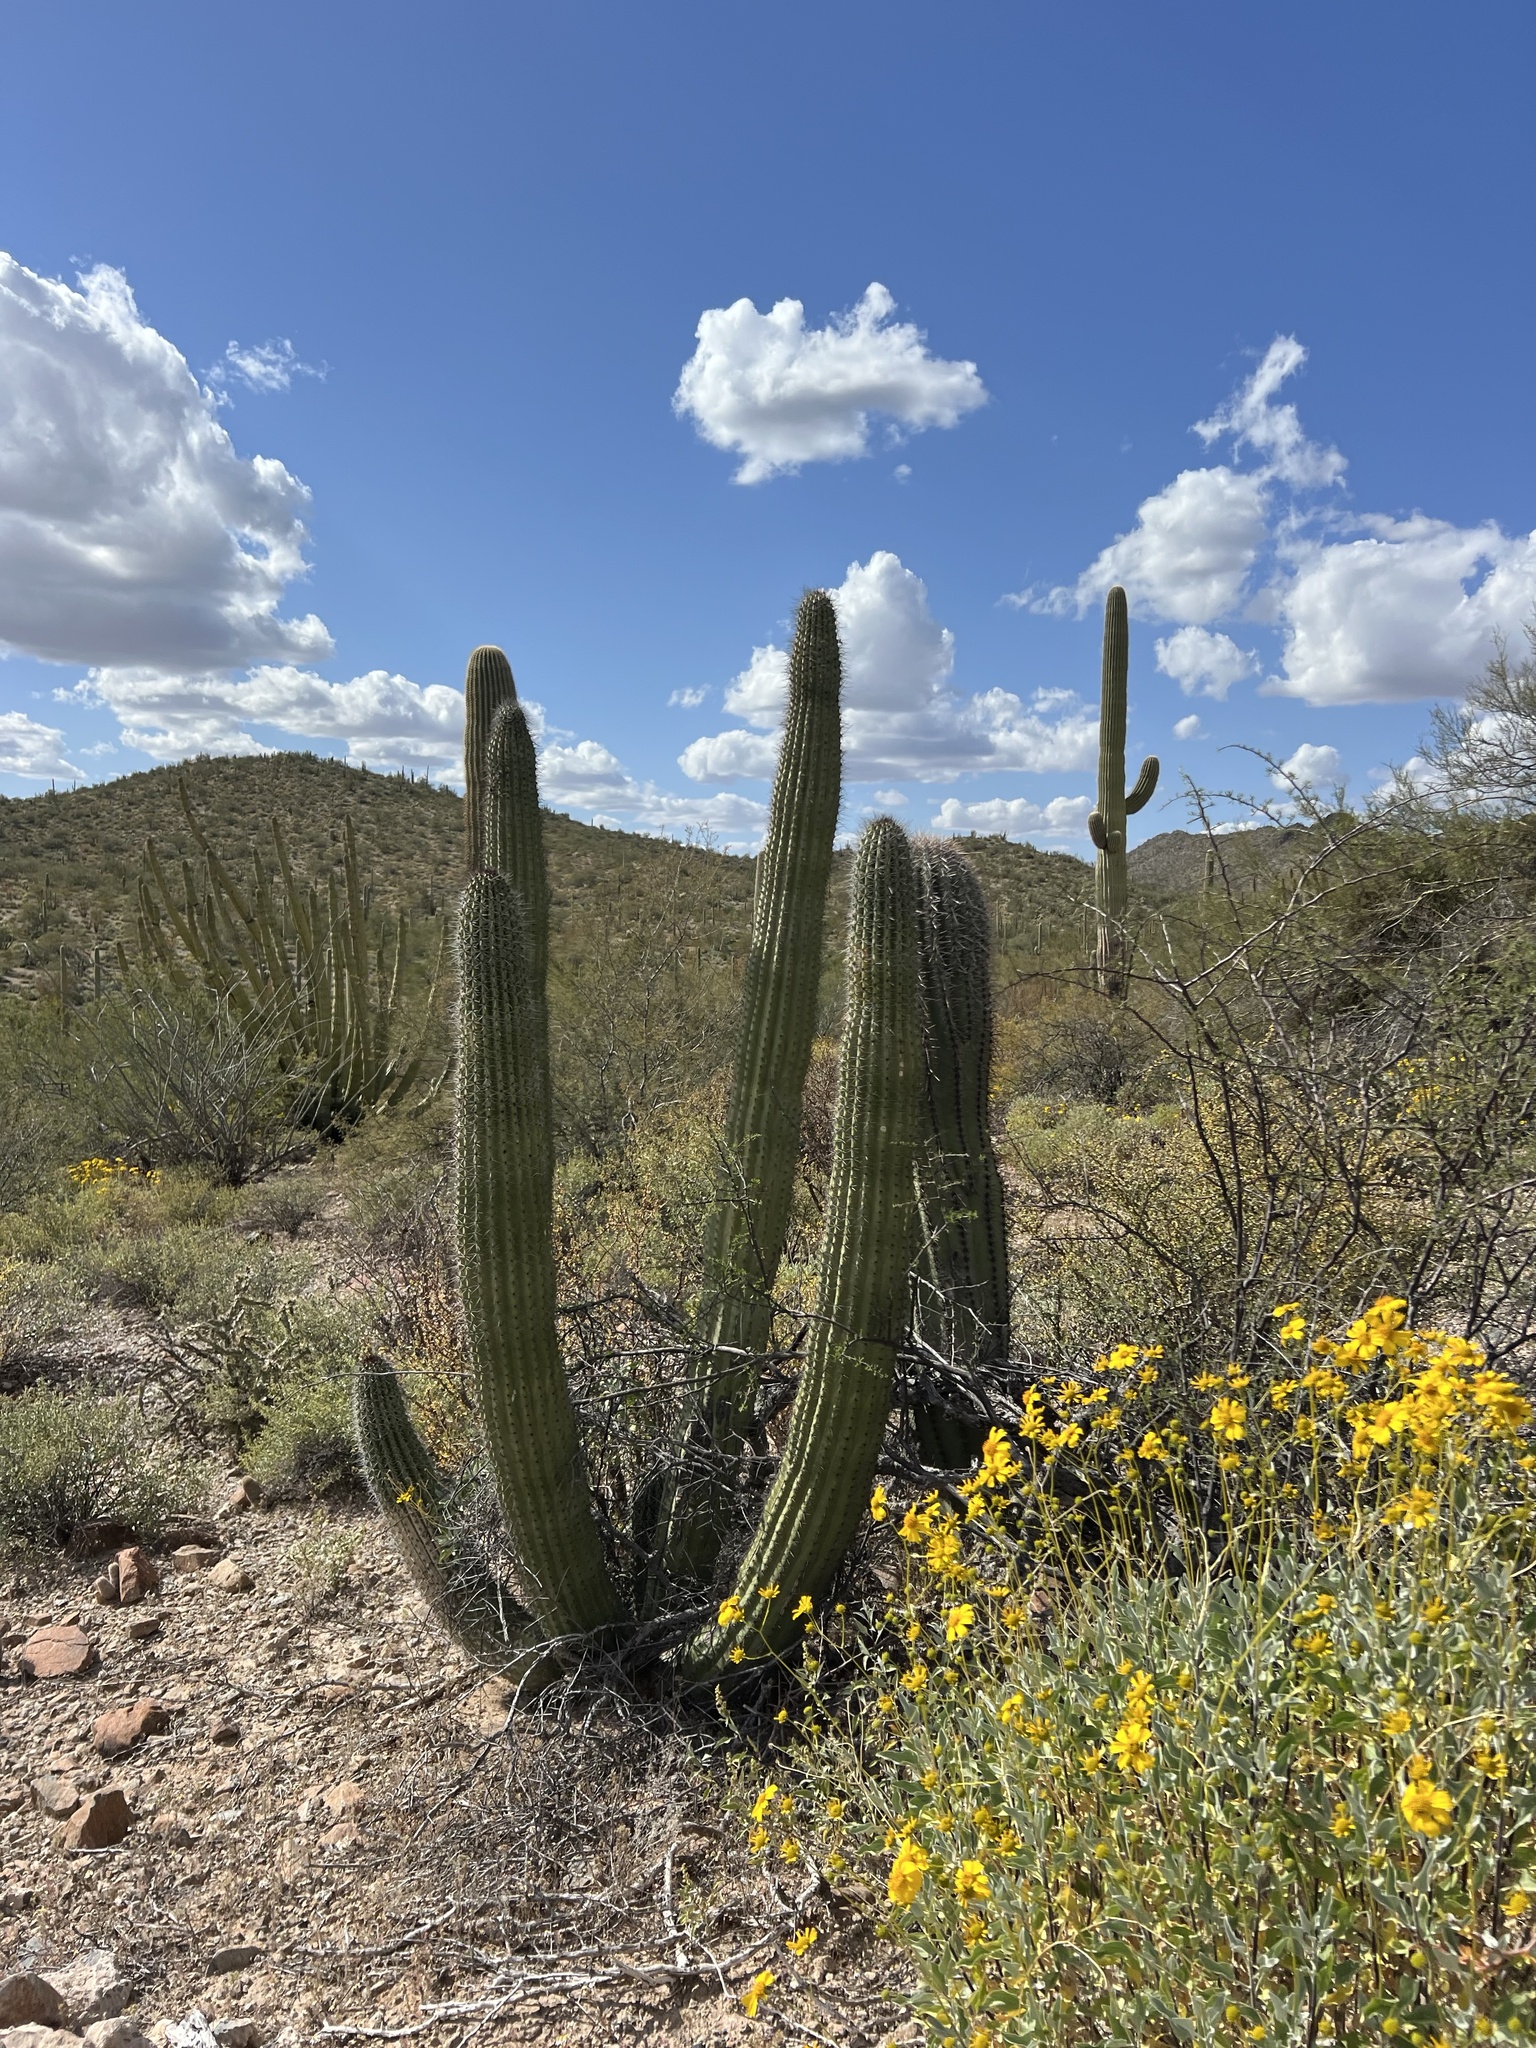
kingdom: Plantae
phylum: Tracheophyta
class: Magnoliopsida
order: Caryophyllales
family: Cactaceae
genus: Stenocereus
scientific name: Stenocereus thurberi
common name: Organ pipe cactus
